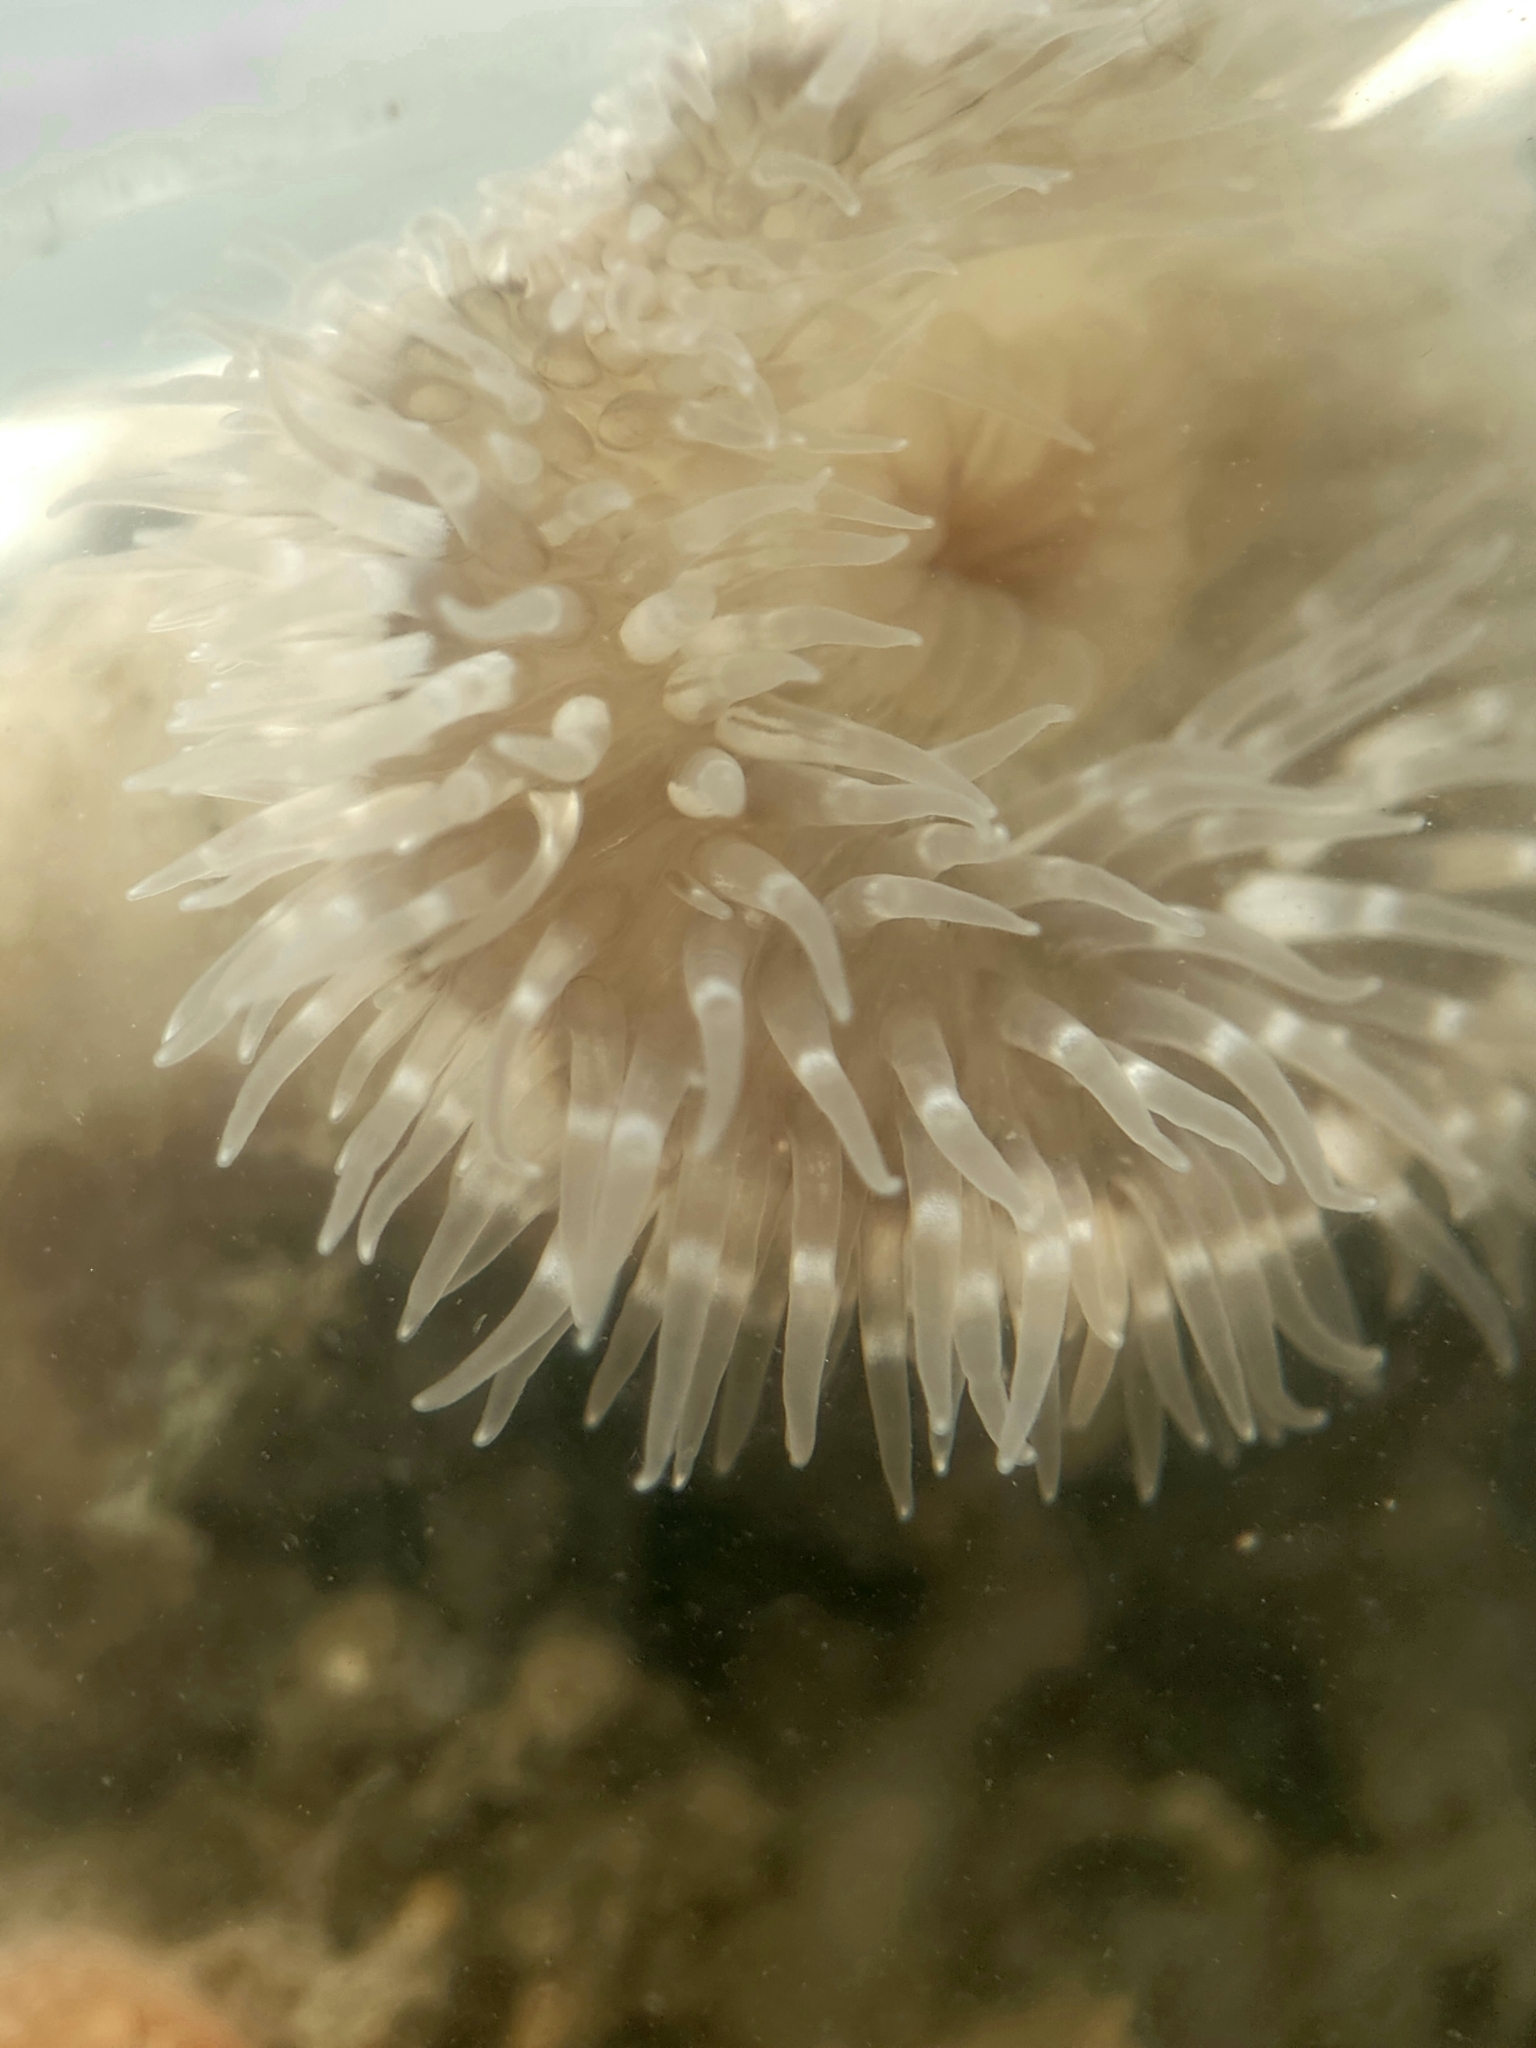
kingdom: Animalia
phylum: Cnidaria
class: Anthozoa
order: Actiniaria
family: Metridiidae
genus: Metridium
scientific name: Metridium senile
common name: Clonal plumose anemone
